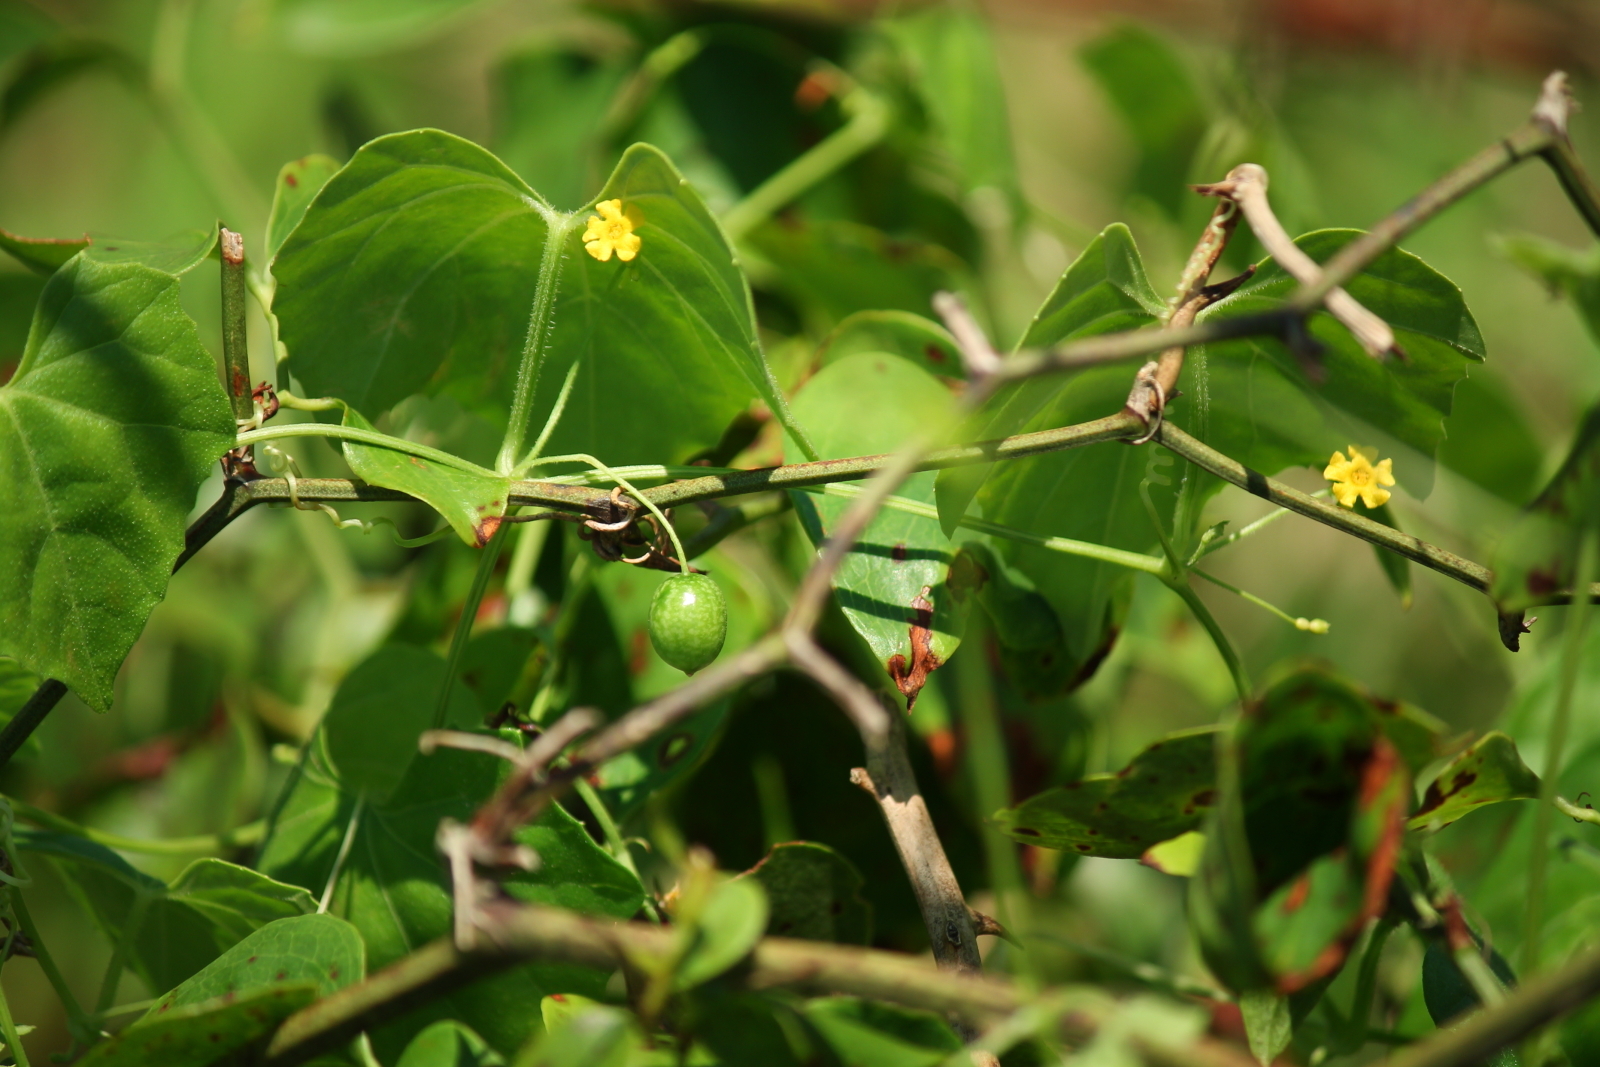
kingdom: Plantae
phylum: Tracheophyta
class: Magnoliopsida
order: Cucurbitales
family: Cucurbitaceae
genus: Melothria
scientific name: Melothria pendula
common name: Creeping-cucumber
